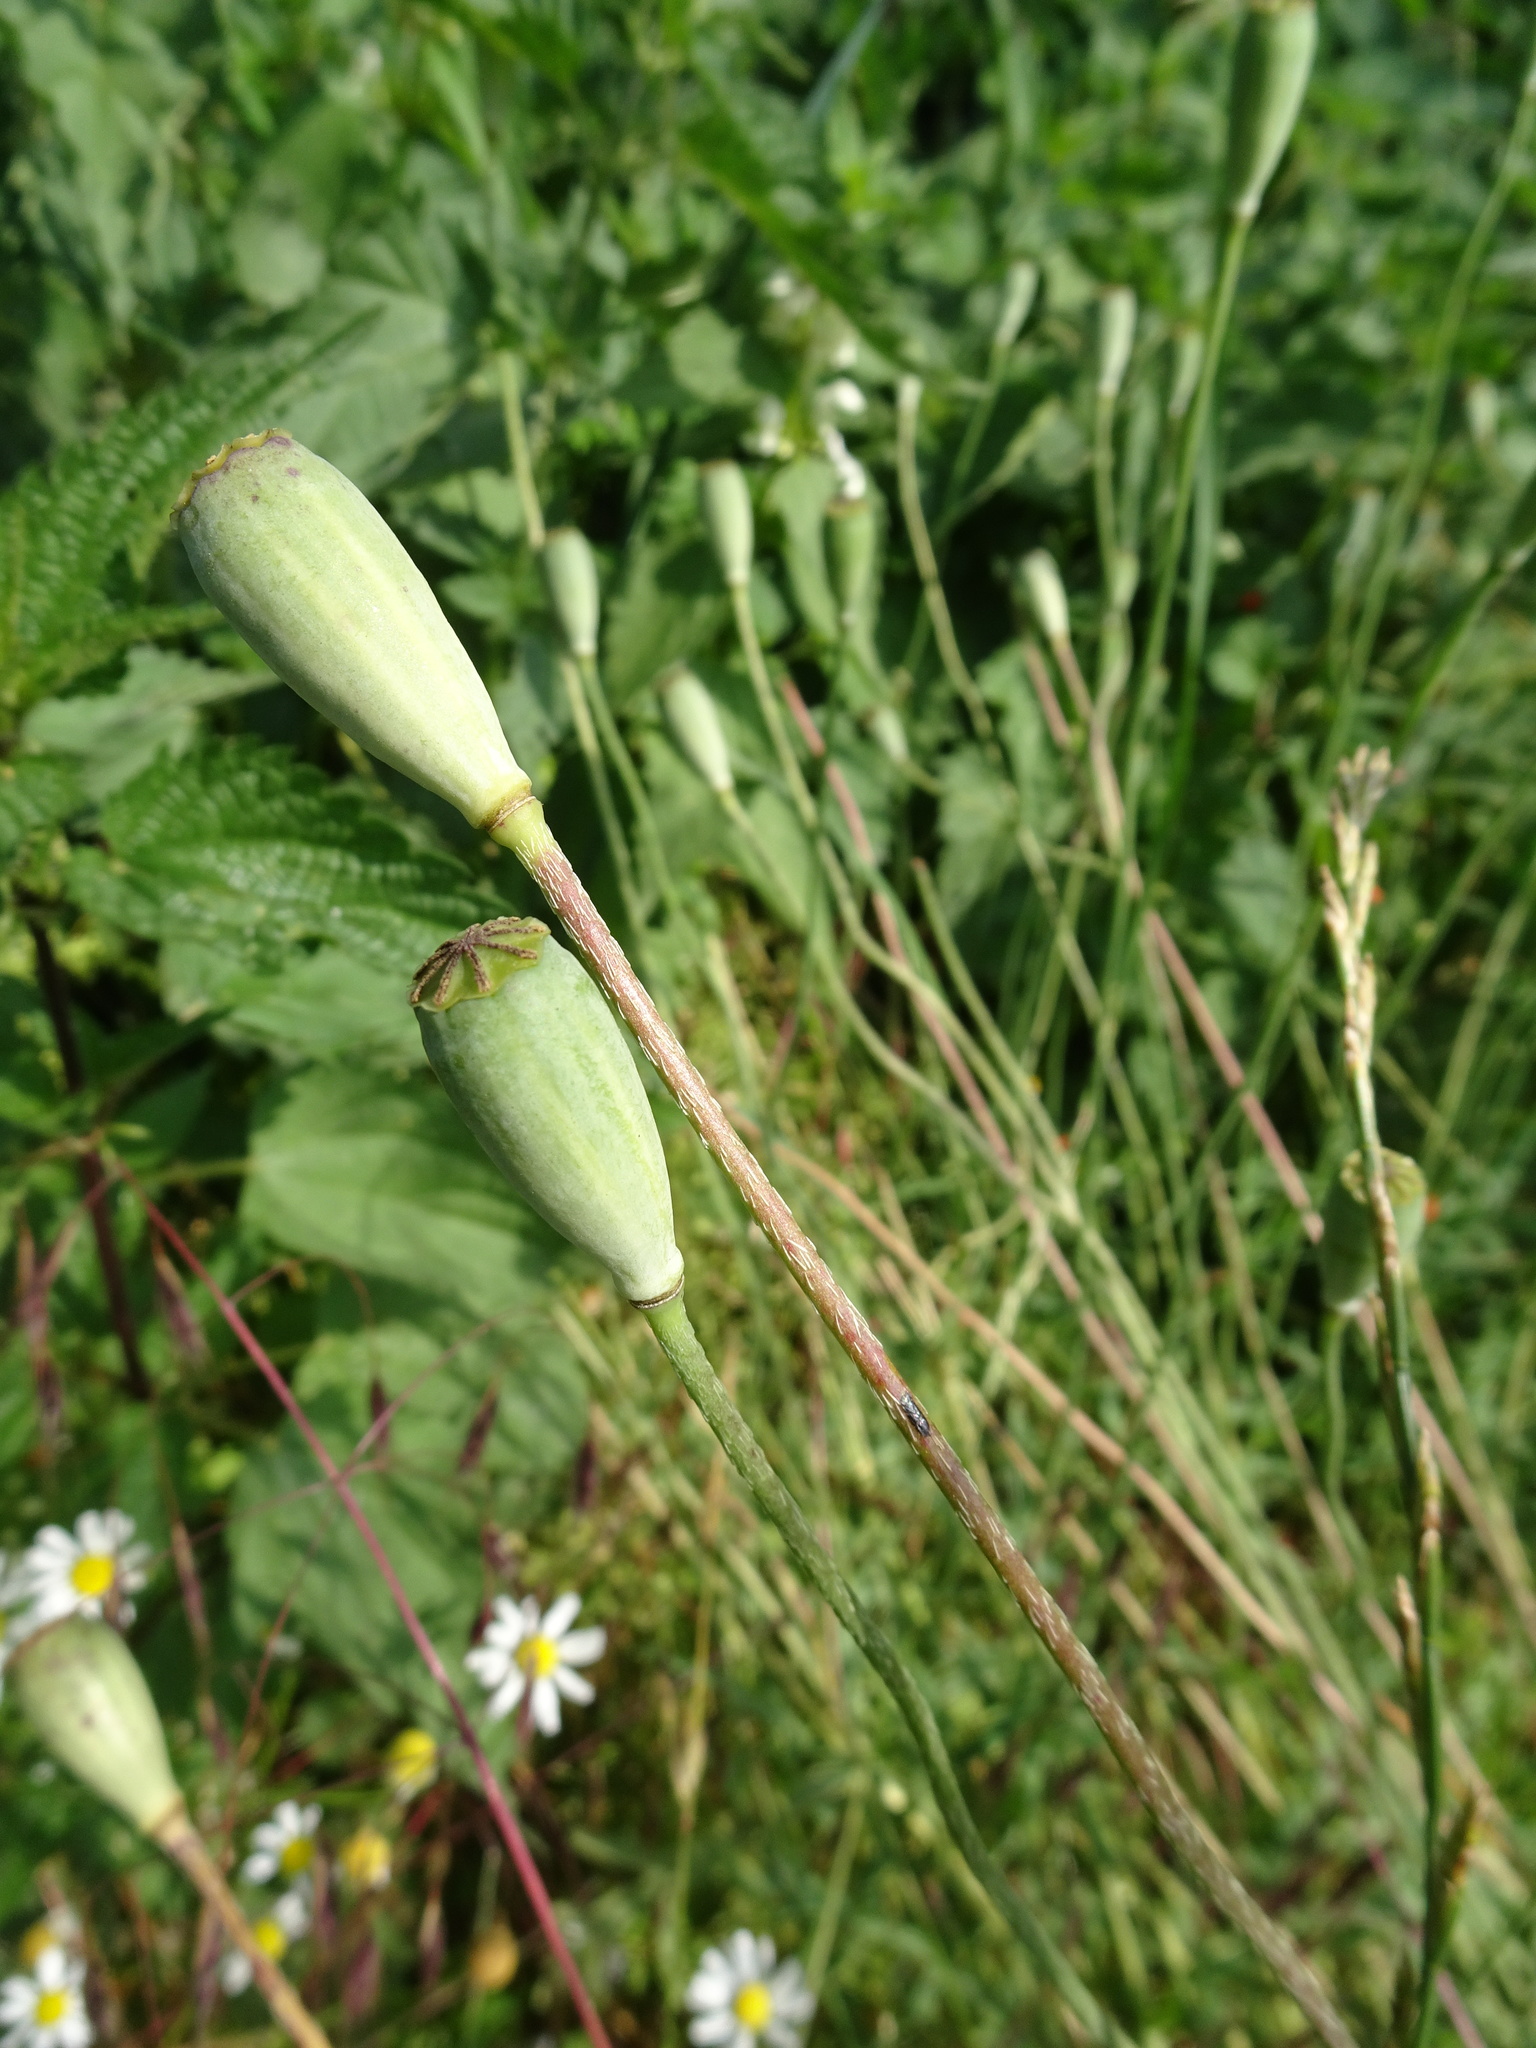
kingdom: Plantae
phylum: Tracheophyta
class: Magnoliopsida
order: Ranunculales
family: Papaveraceae
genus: Papaver
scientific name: Papaver dubium
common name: Long-headed poppy
